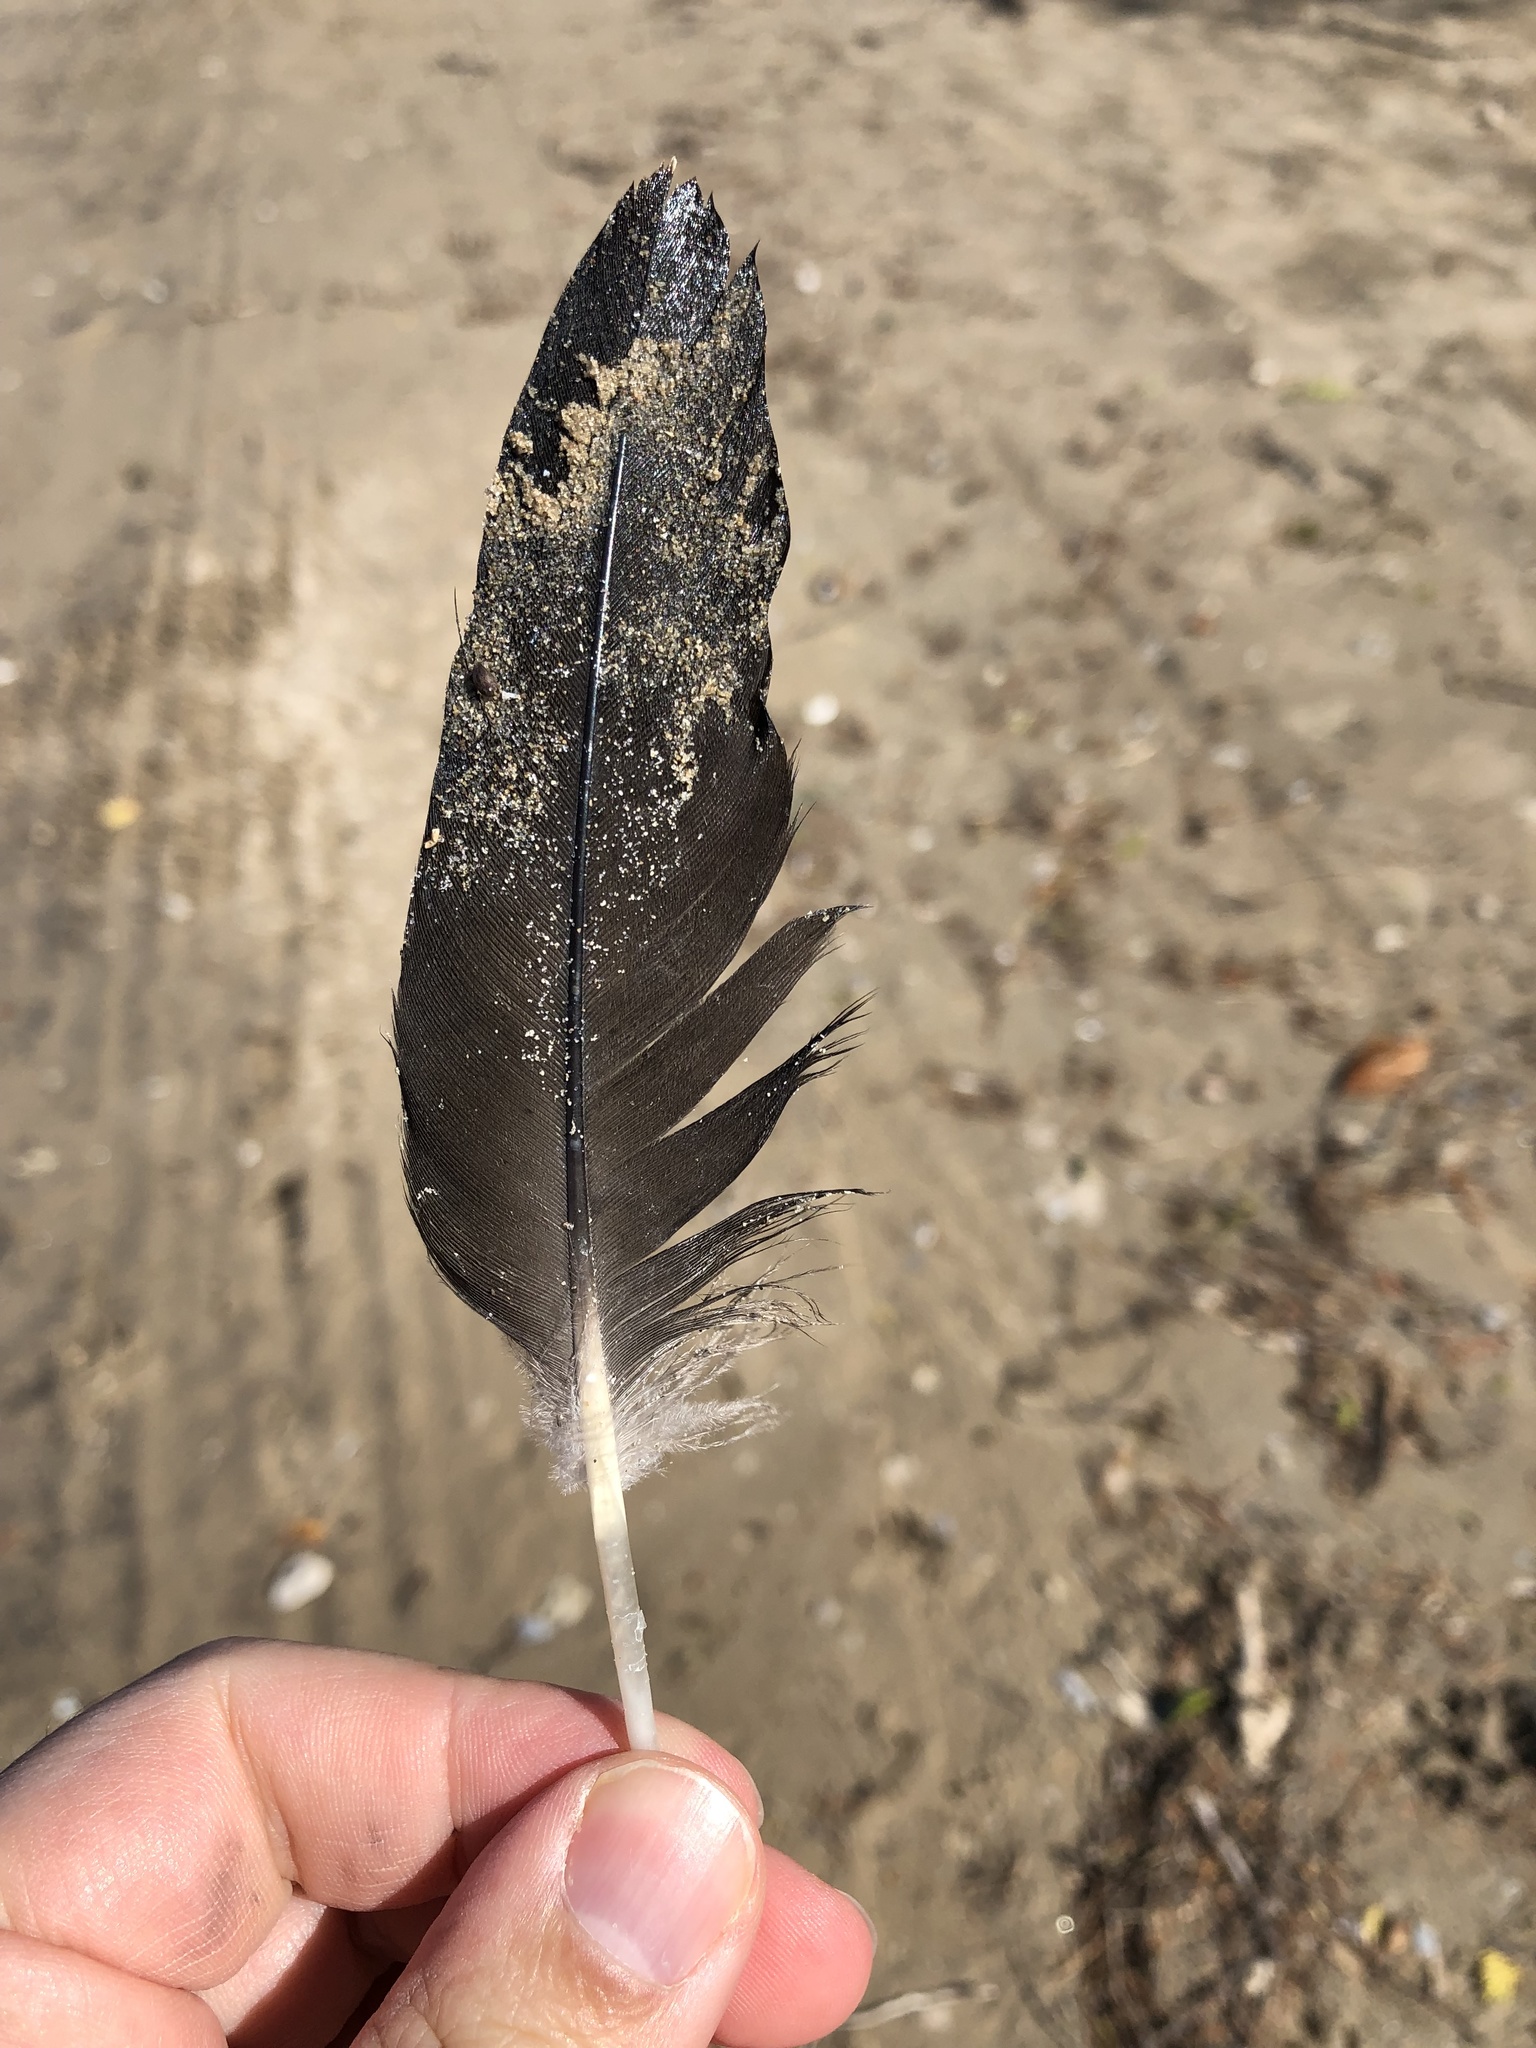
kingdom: Animalia
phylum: Chordata
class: Aves
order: Anseriformes
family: Anatidae
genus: Branta
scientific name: Branta canadensis
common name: Canada goose
